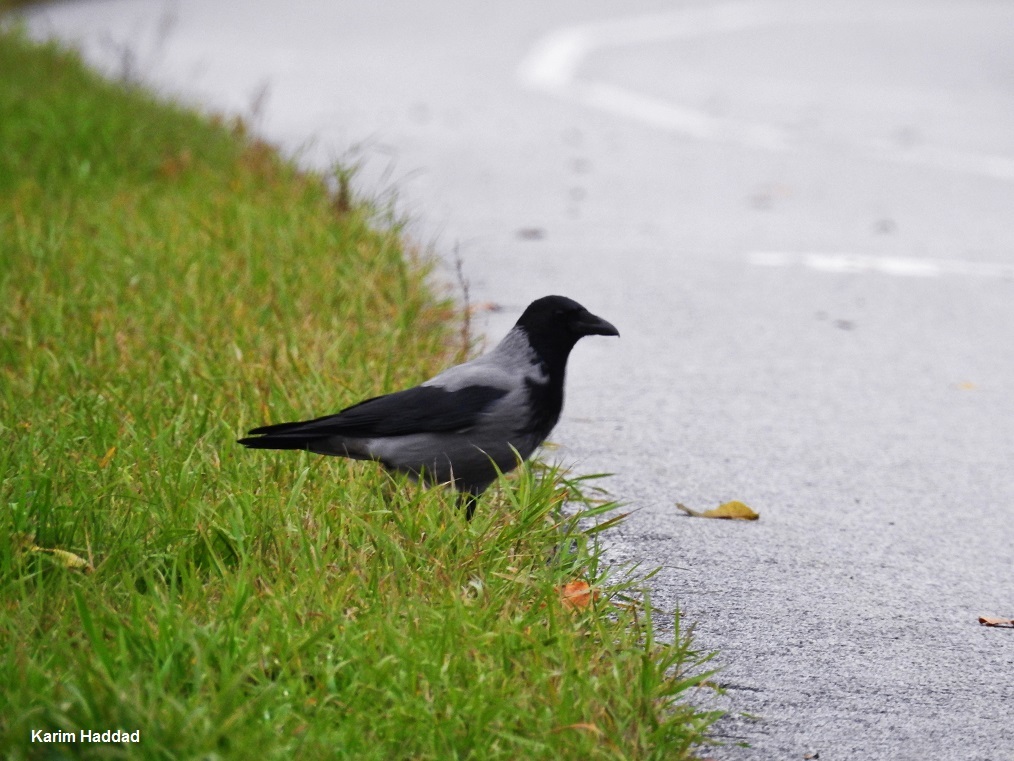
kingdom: Animalia
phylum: Chordata
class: Aves
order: Passeriformes
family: Corvidae
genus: Corvus
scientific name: Corvus cornix
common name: Hooded crow
